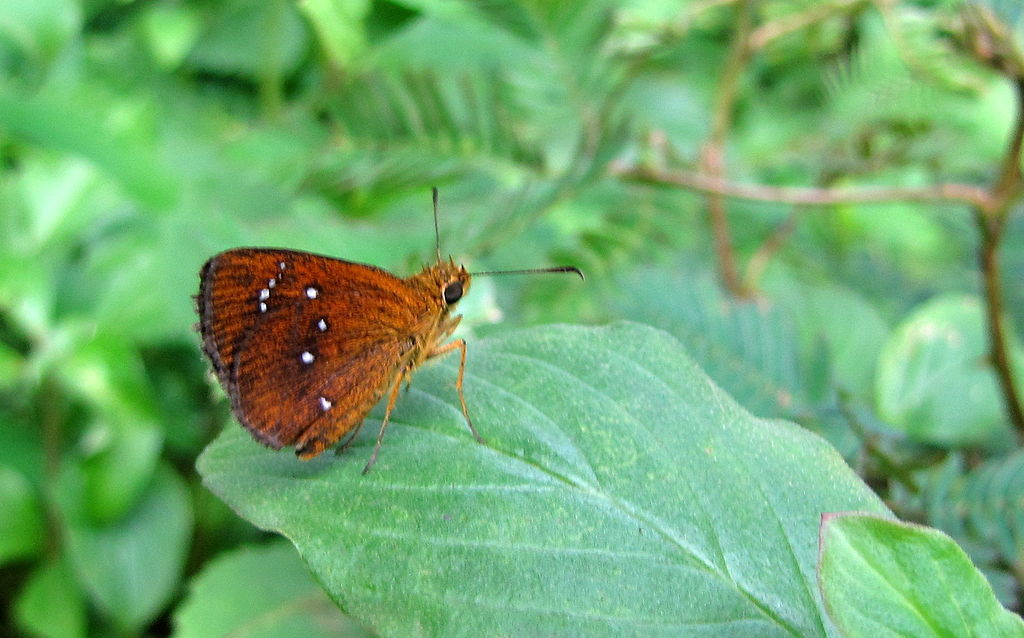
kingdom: Animalia
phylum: Arthropoda
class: Insecta
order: Lepidoptera
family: Hesperiidae
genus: Iambrix
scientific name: Iambrix salsala
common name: Chestnut bob
